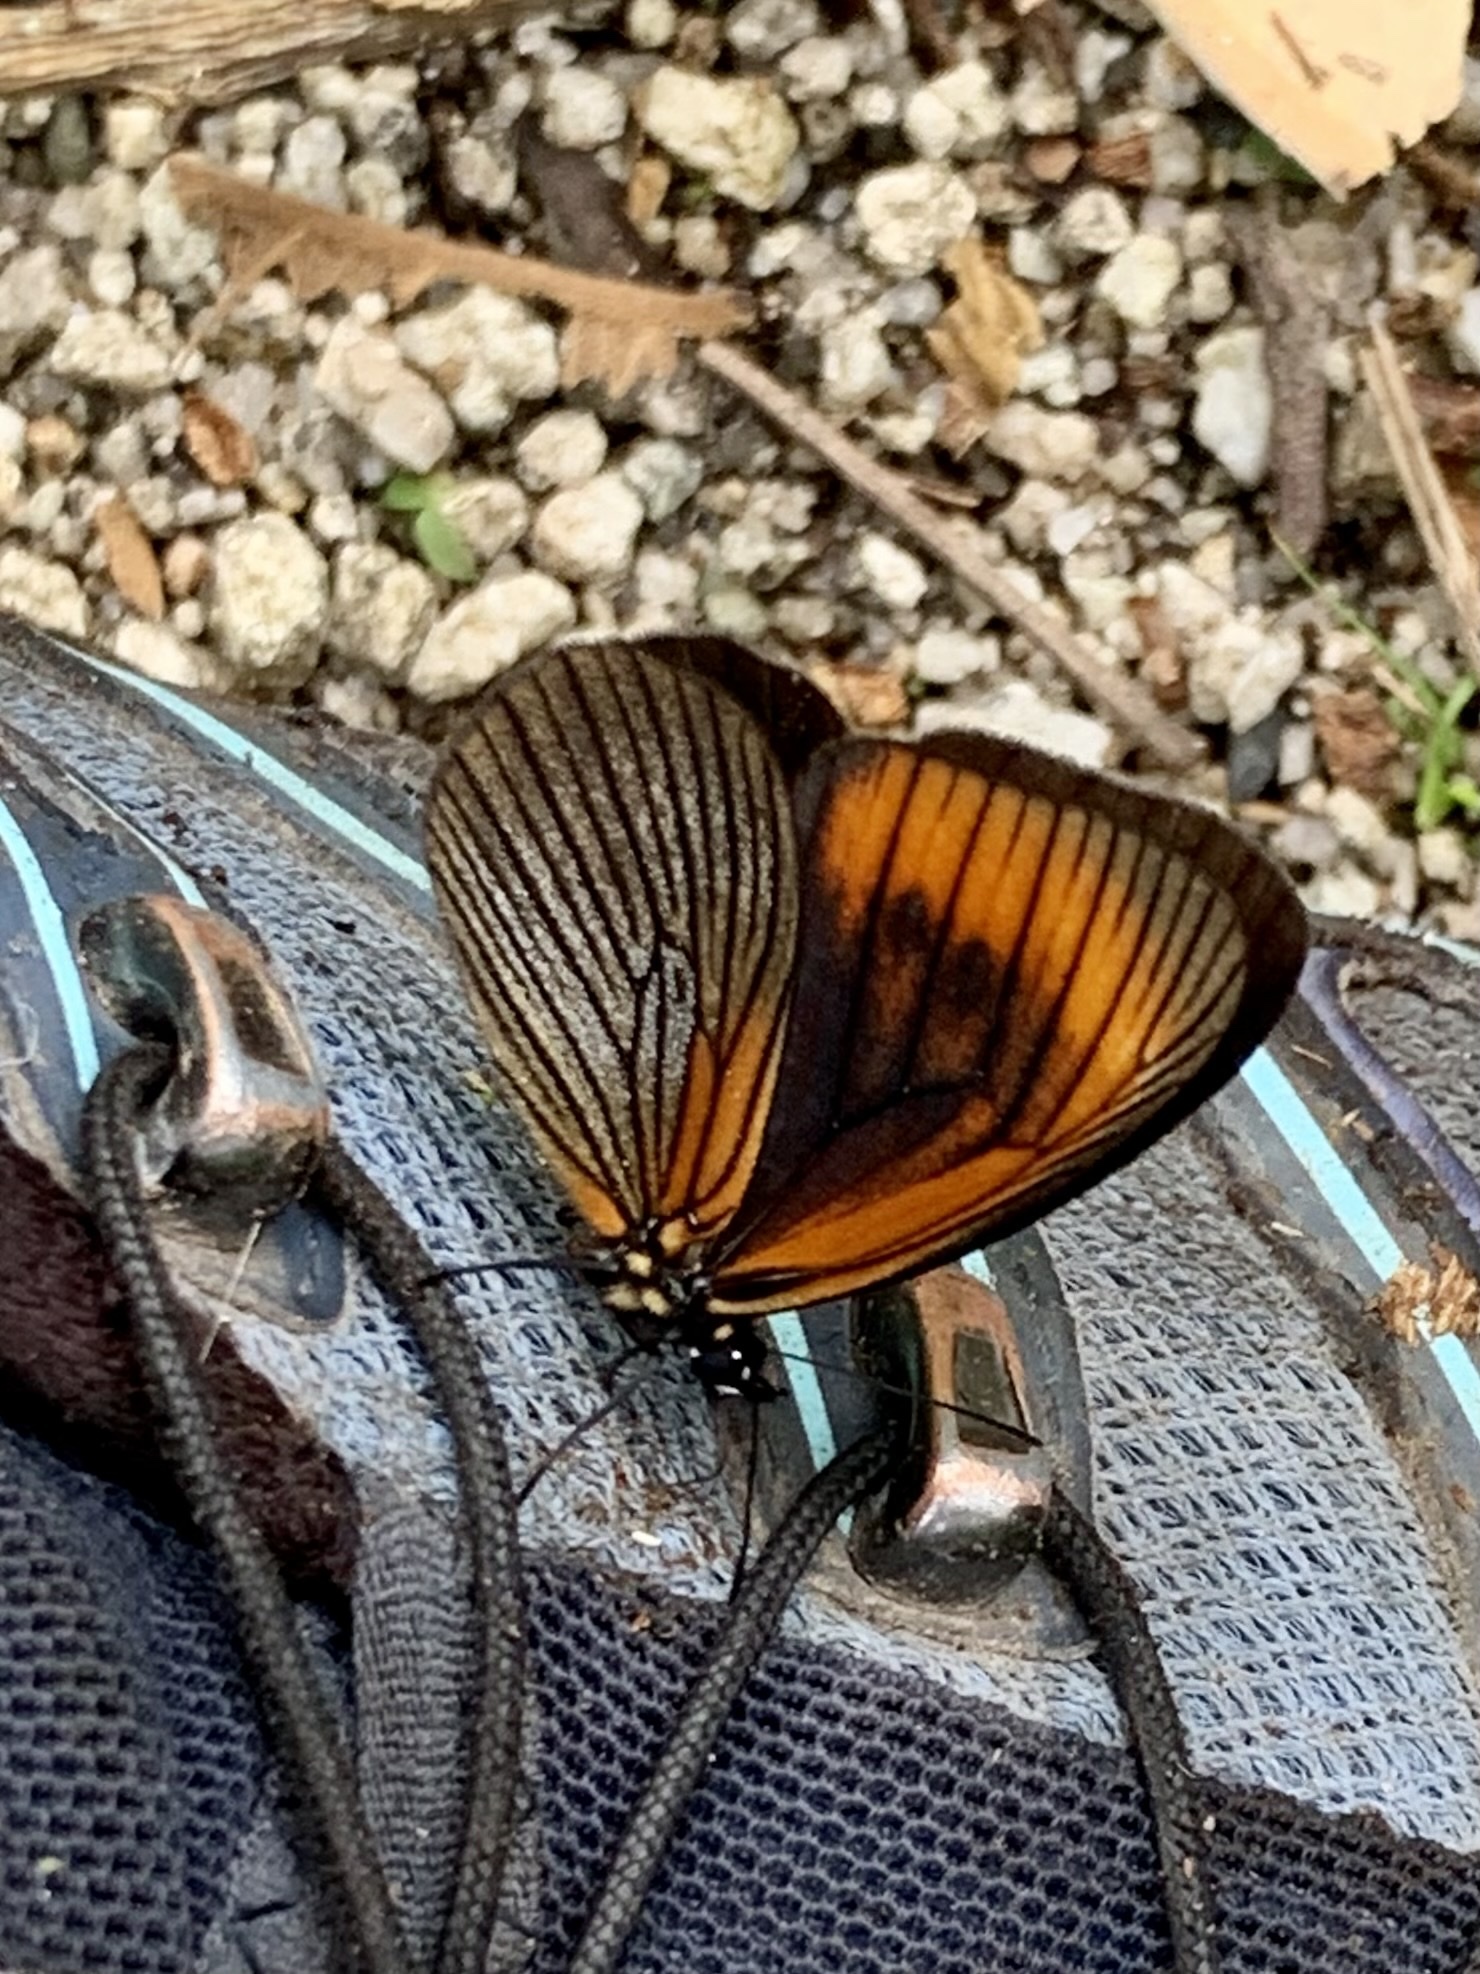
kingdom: Animalia
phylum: Arthropoda
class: Insecta
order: Lepidoptera
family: Nymphalidae
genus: Lymanopoda
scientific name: Lymanopoda acraeida
